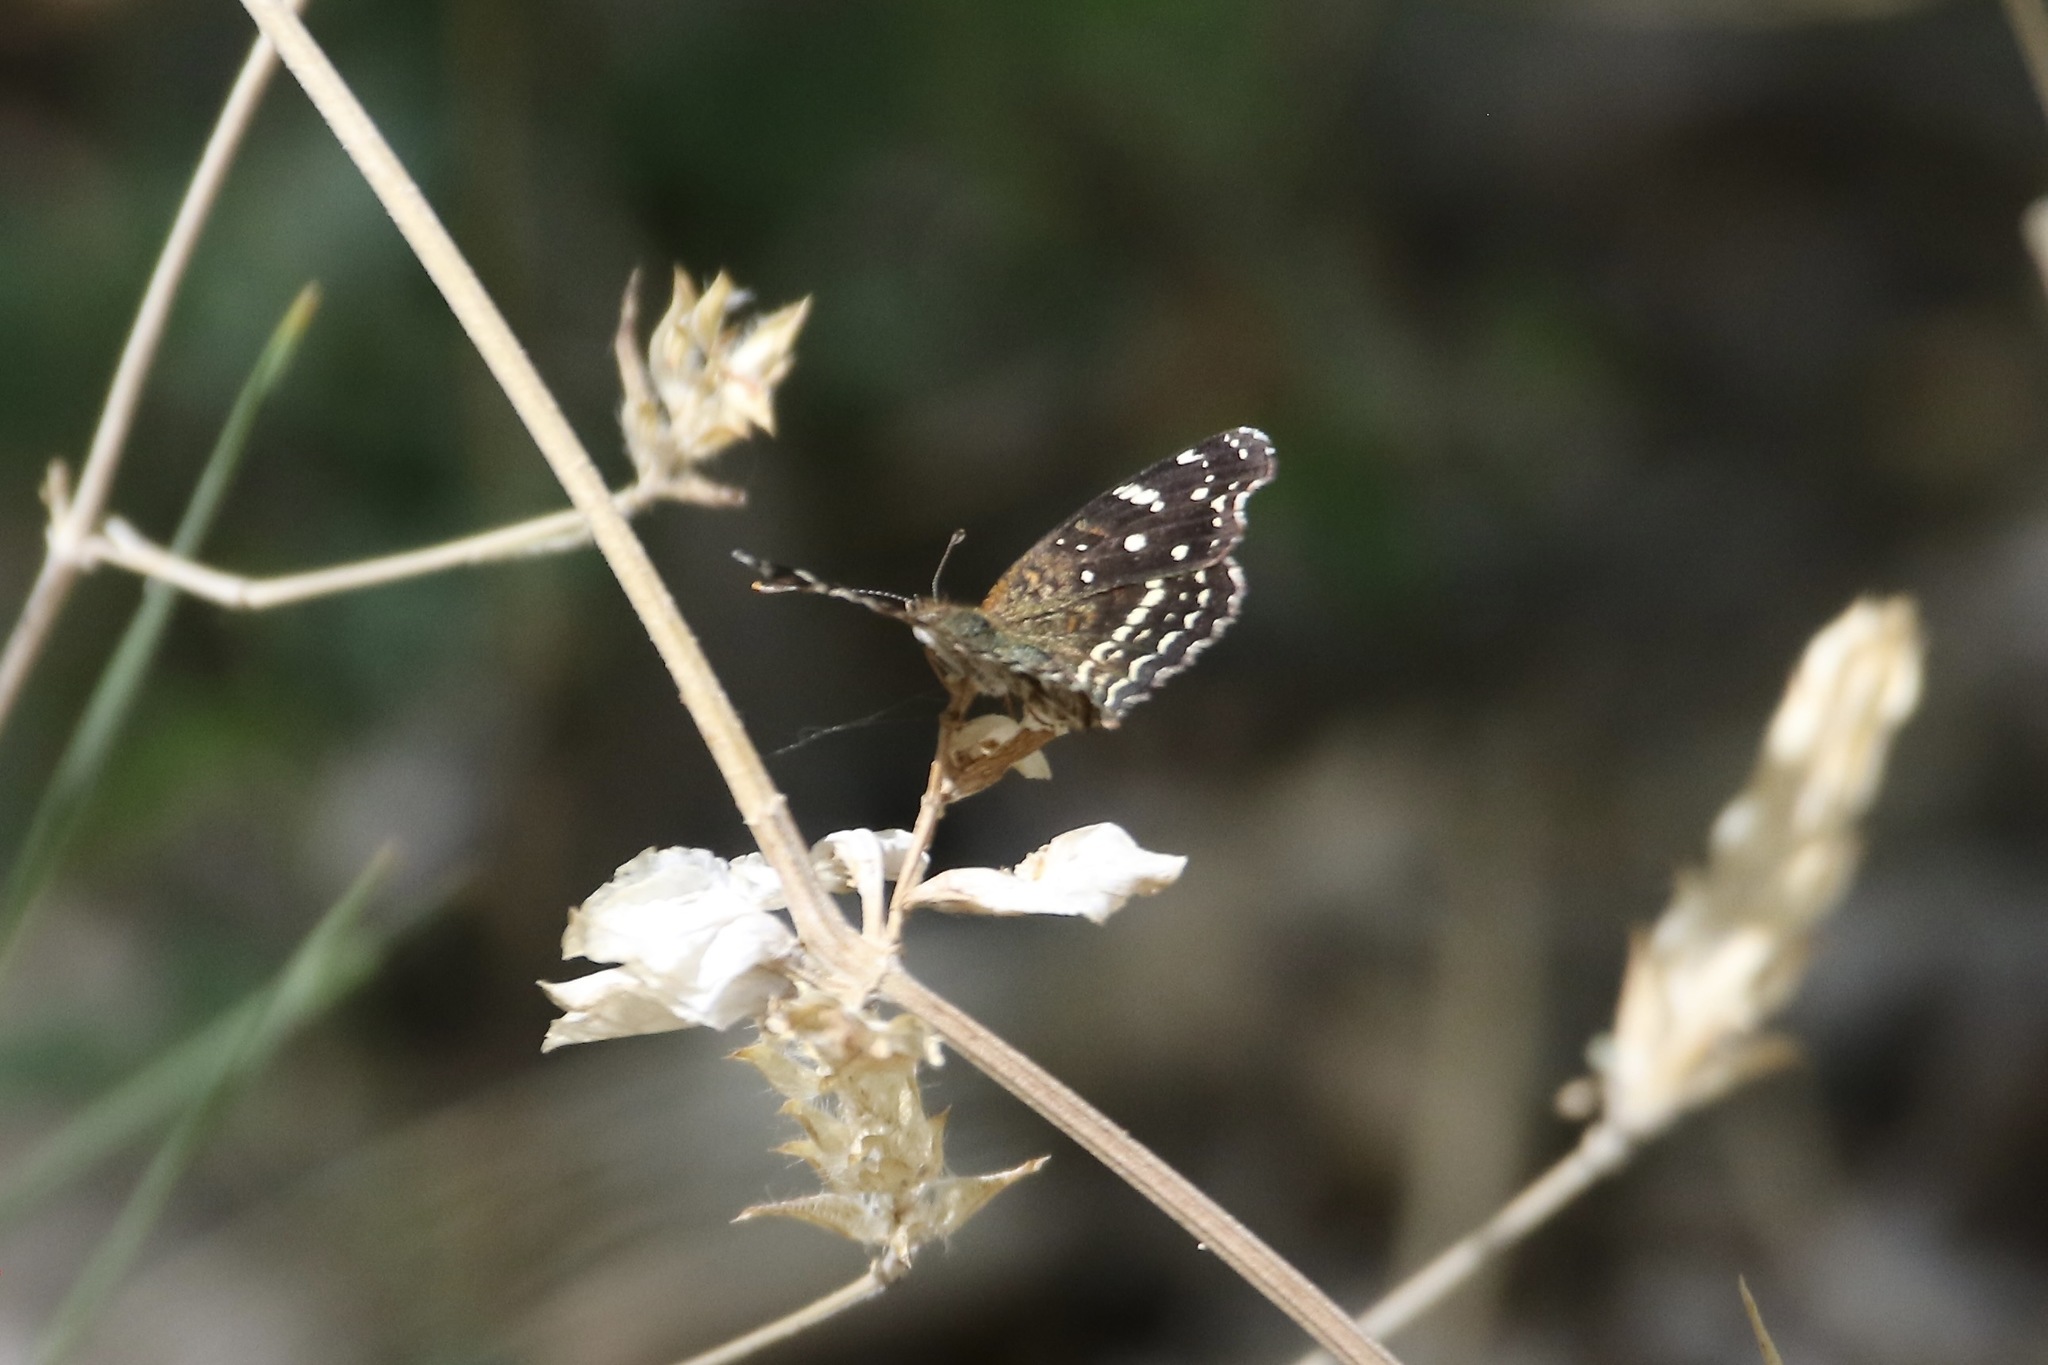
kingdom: Animalia
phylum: Arthropoda
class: Insecta
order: Lepidoptera
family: Nymphalidae
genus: Anthanassa
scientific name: Anthanassa texana
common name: Texan crescent
